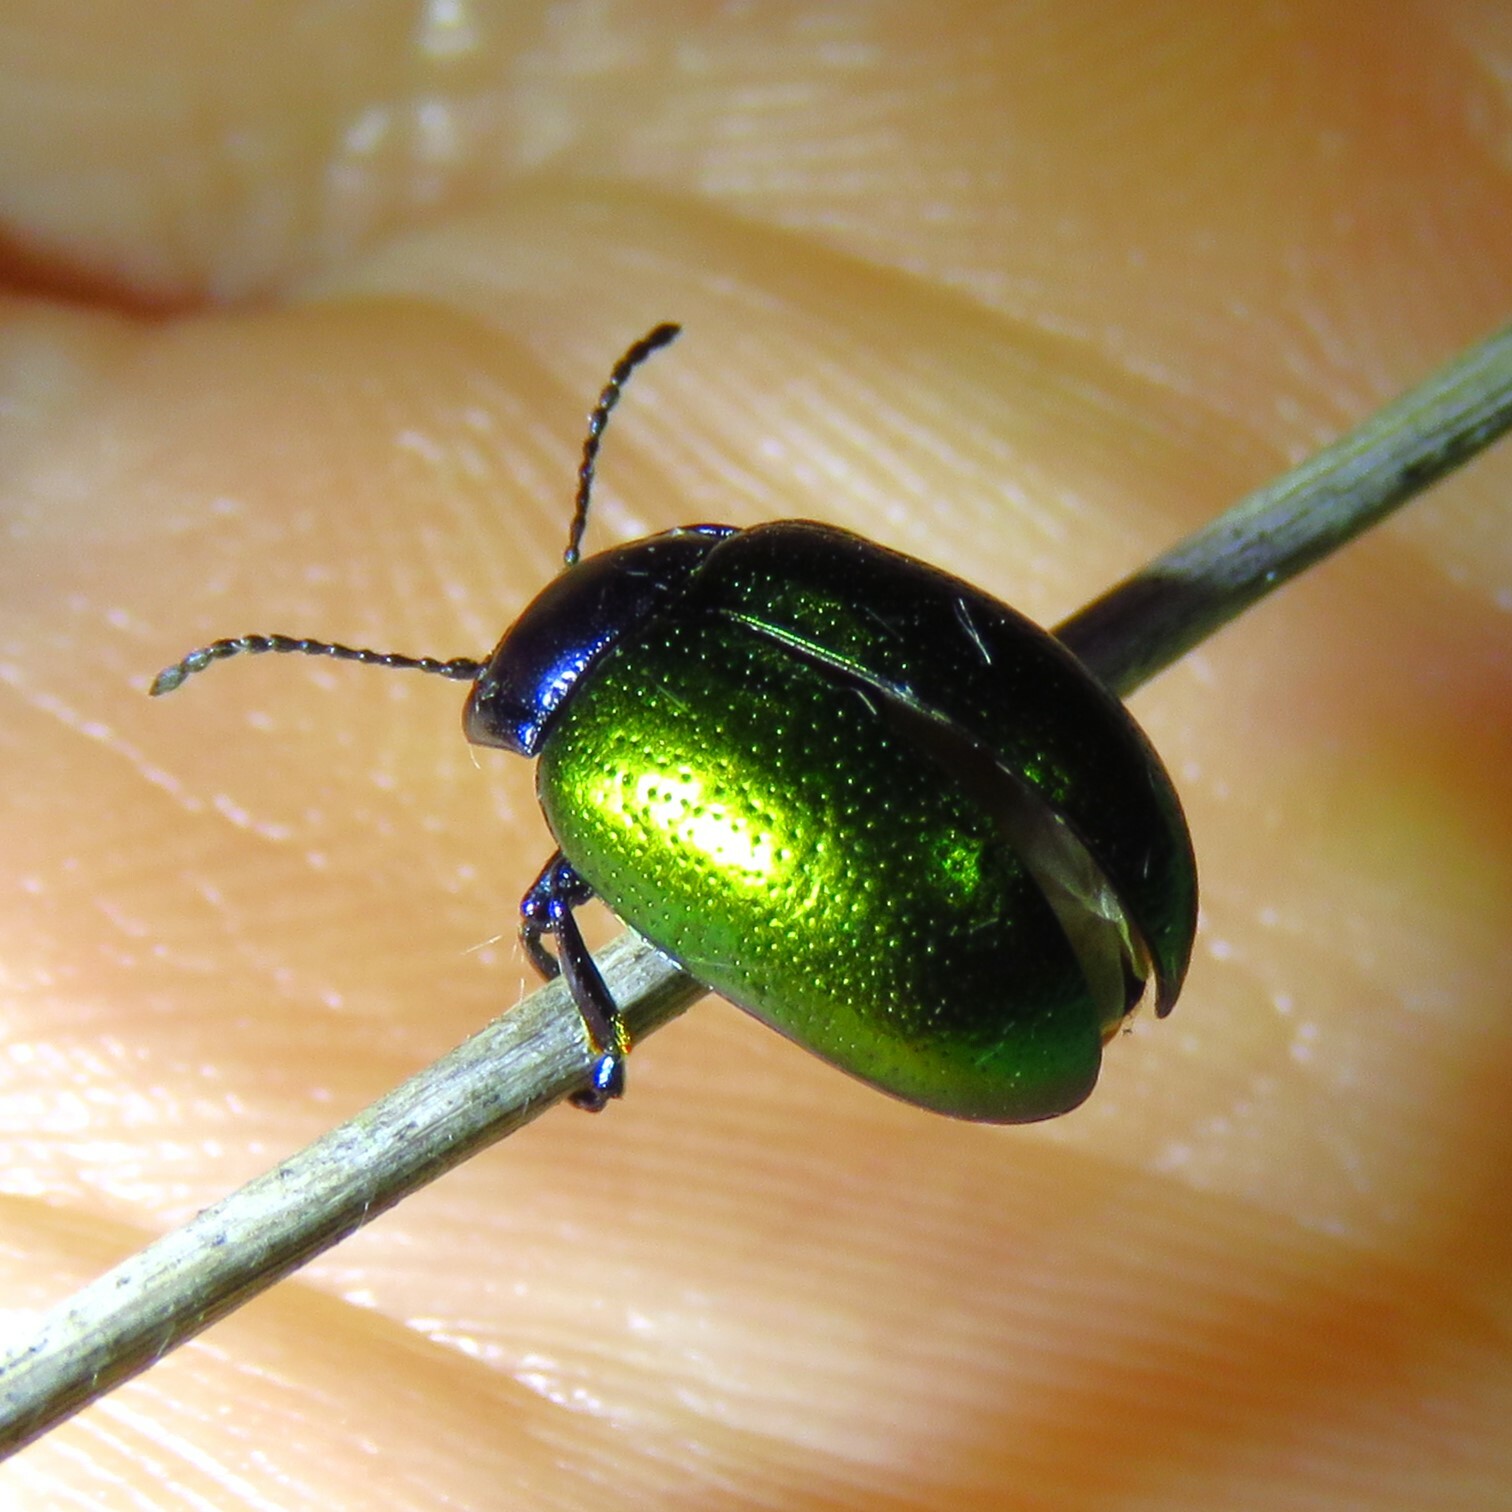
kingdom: Animalia
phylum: Arthropoda
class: Insecta
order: Coleoptera
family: Chrysomelidae
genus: Chrysolina
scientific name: Chrysolina auripennis
